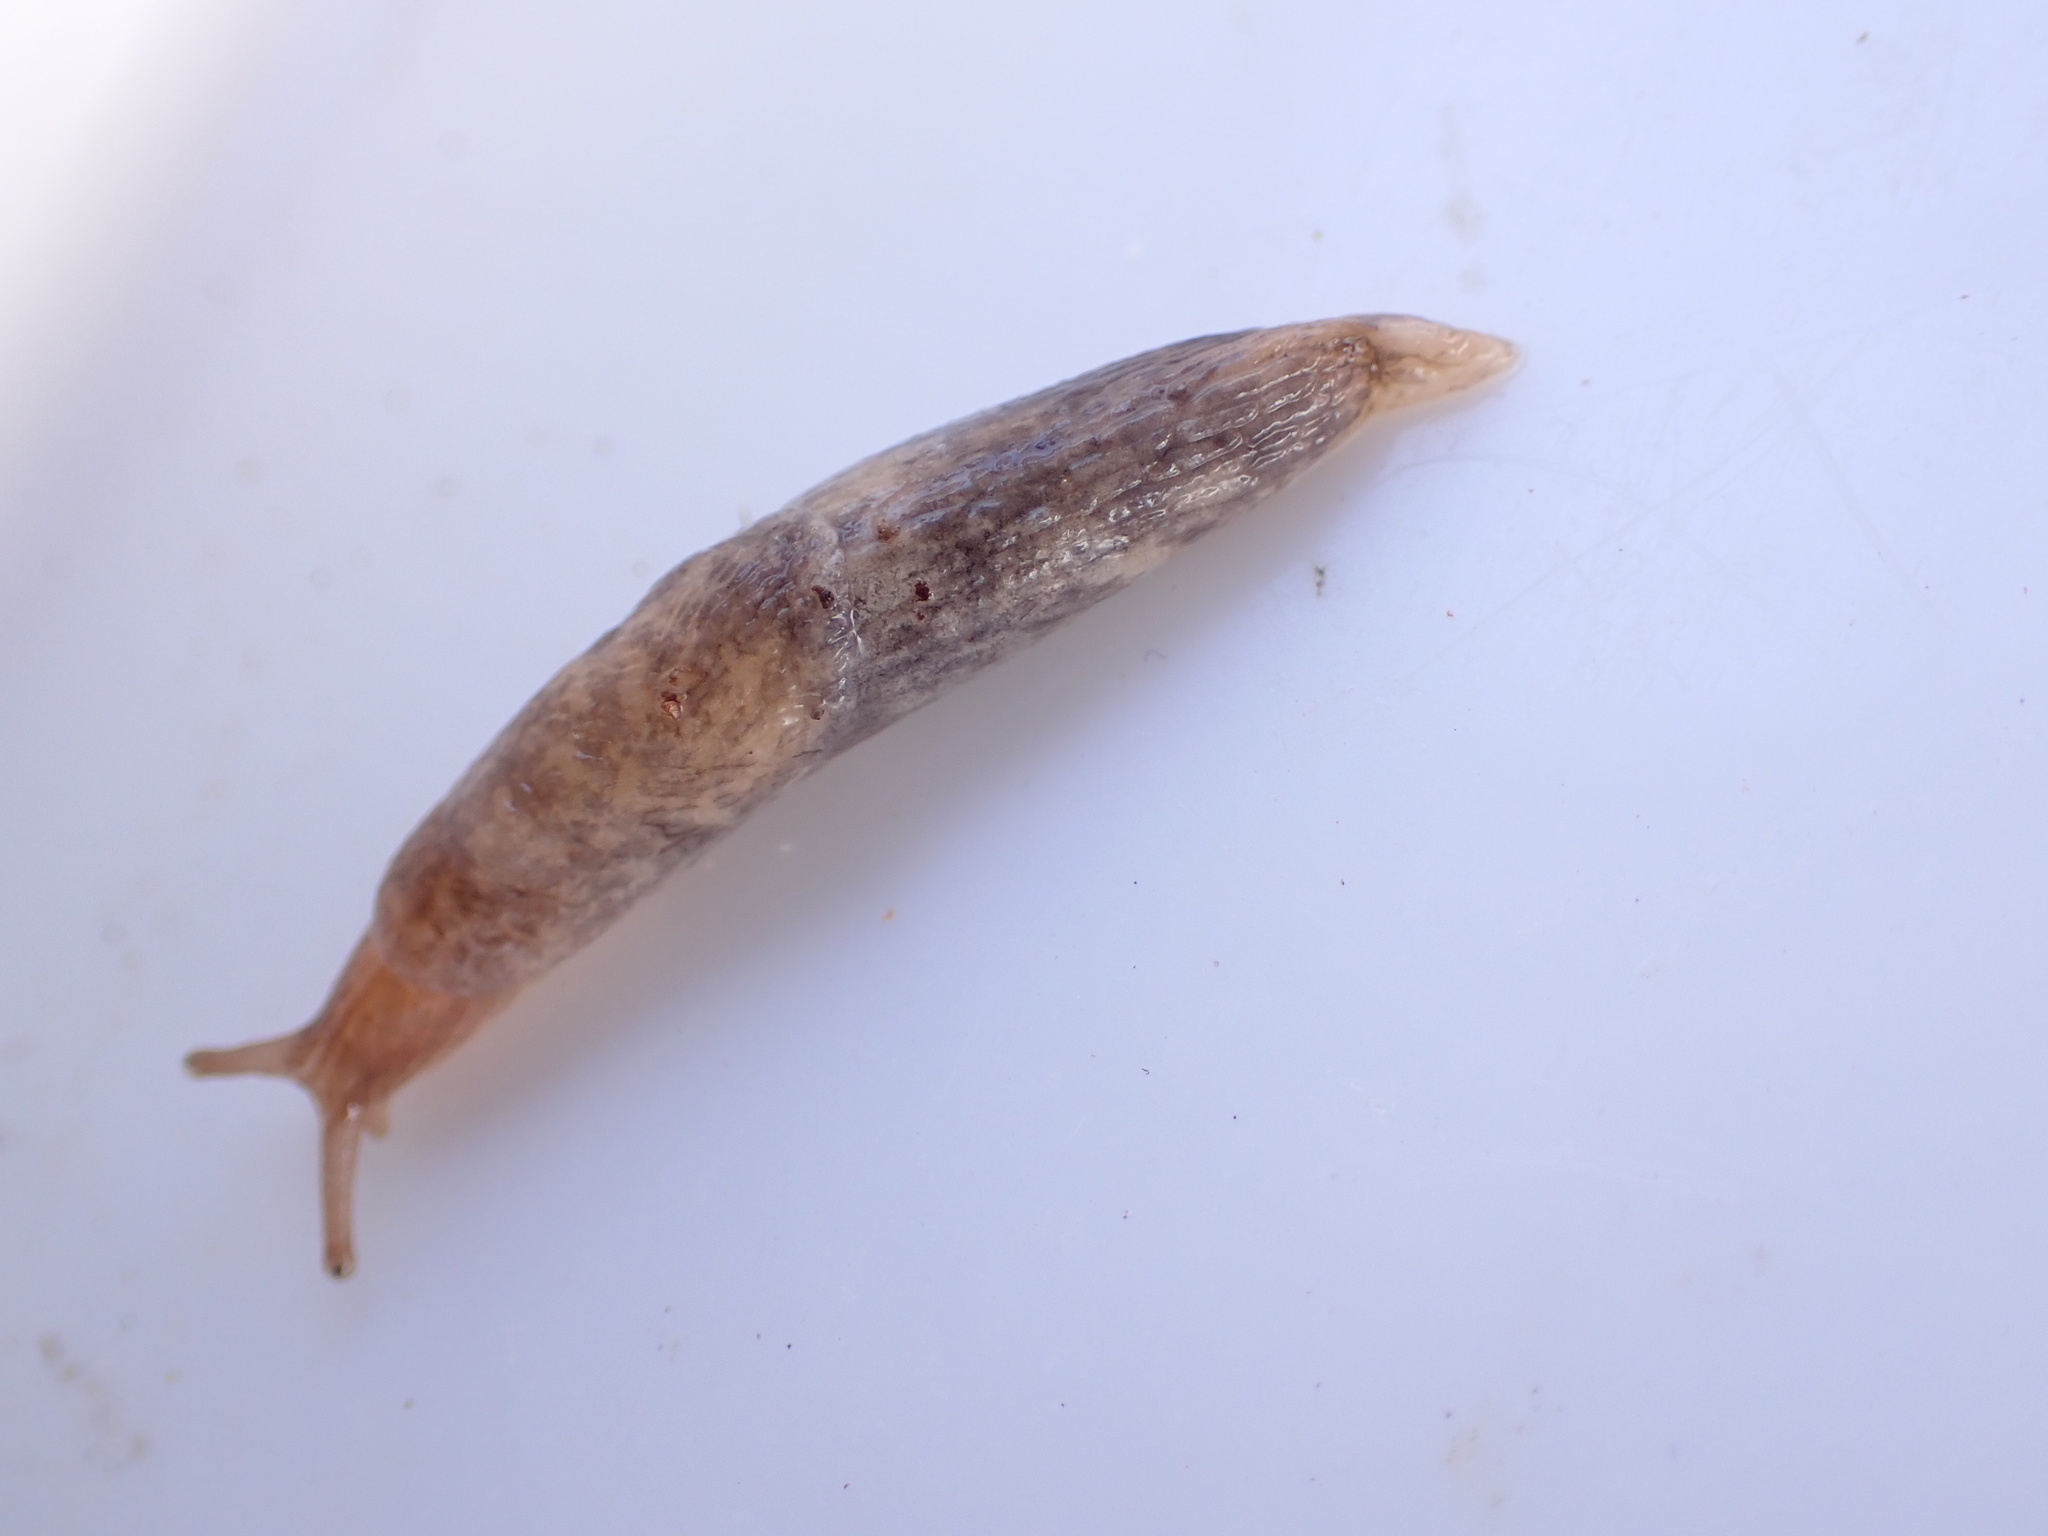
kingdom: Animalia
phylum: Mollusca
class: Gastropoda
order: Stylommatophora
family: Agriolimacidae
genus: Deroceras
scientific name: Deroceras reticulatum
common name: Gray field slug
